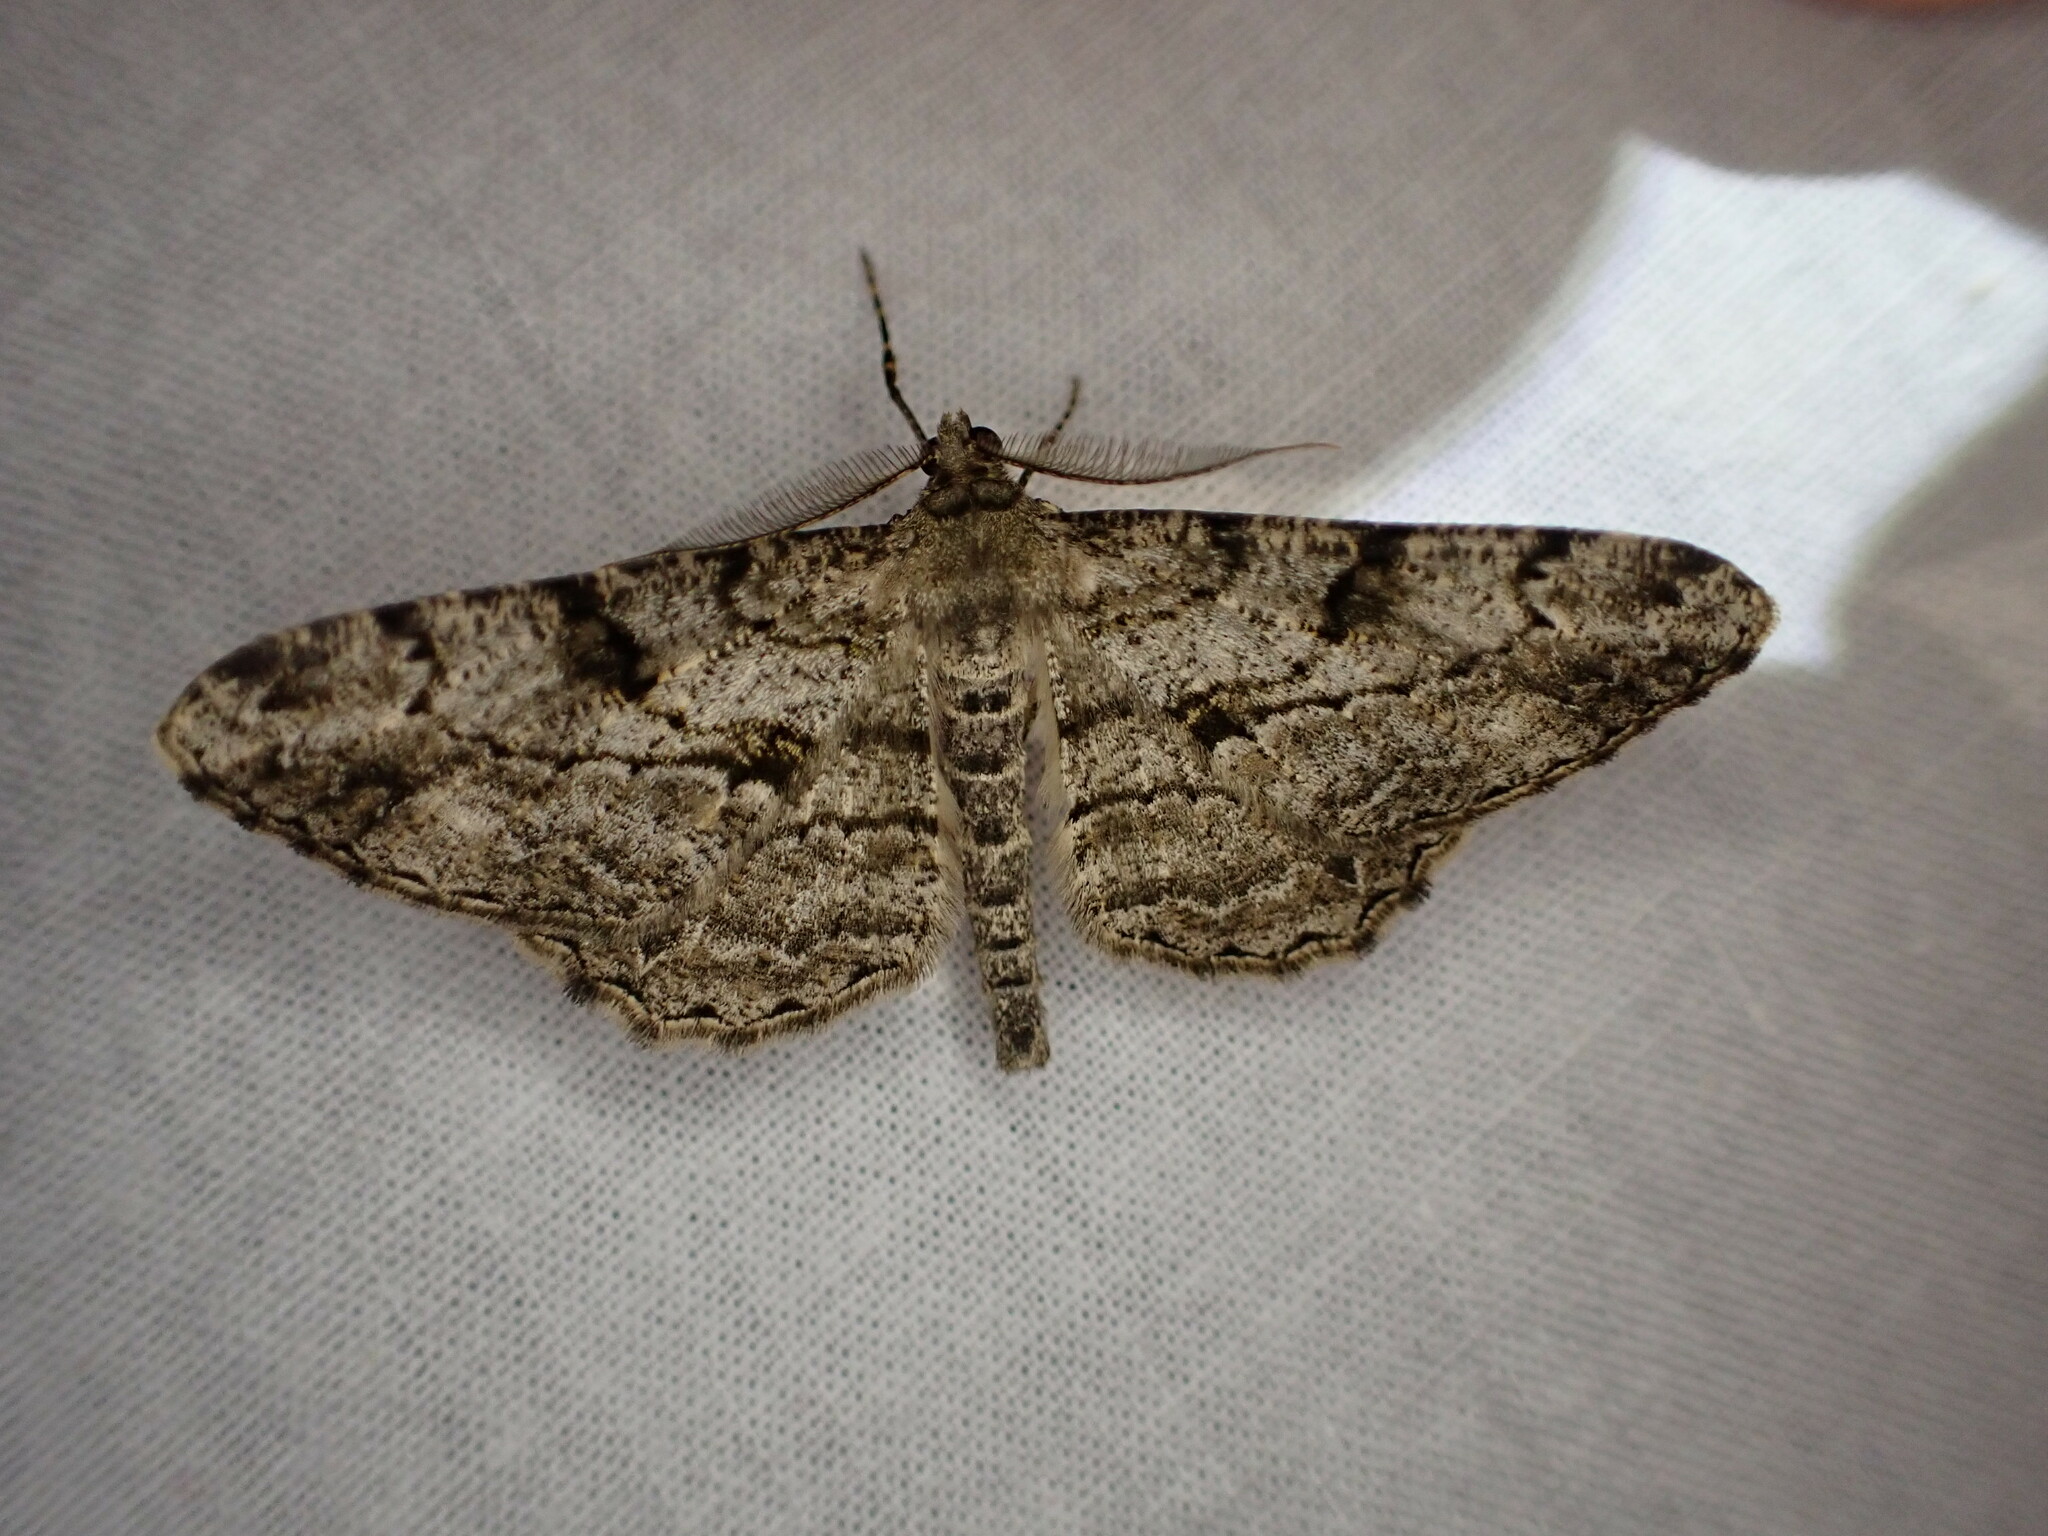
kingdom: Animalia
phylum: Arthropoda
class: Insecta
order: Lepidoptera
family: Geometridae
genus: Peribatodes
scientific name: Peribatodes rhomboidaria
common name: Willow beauty
